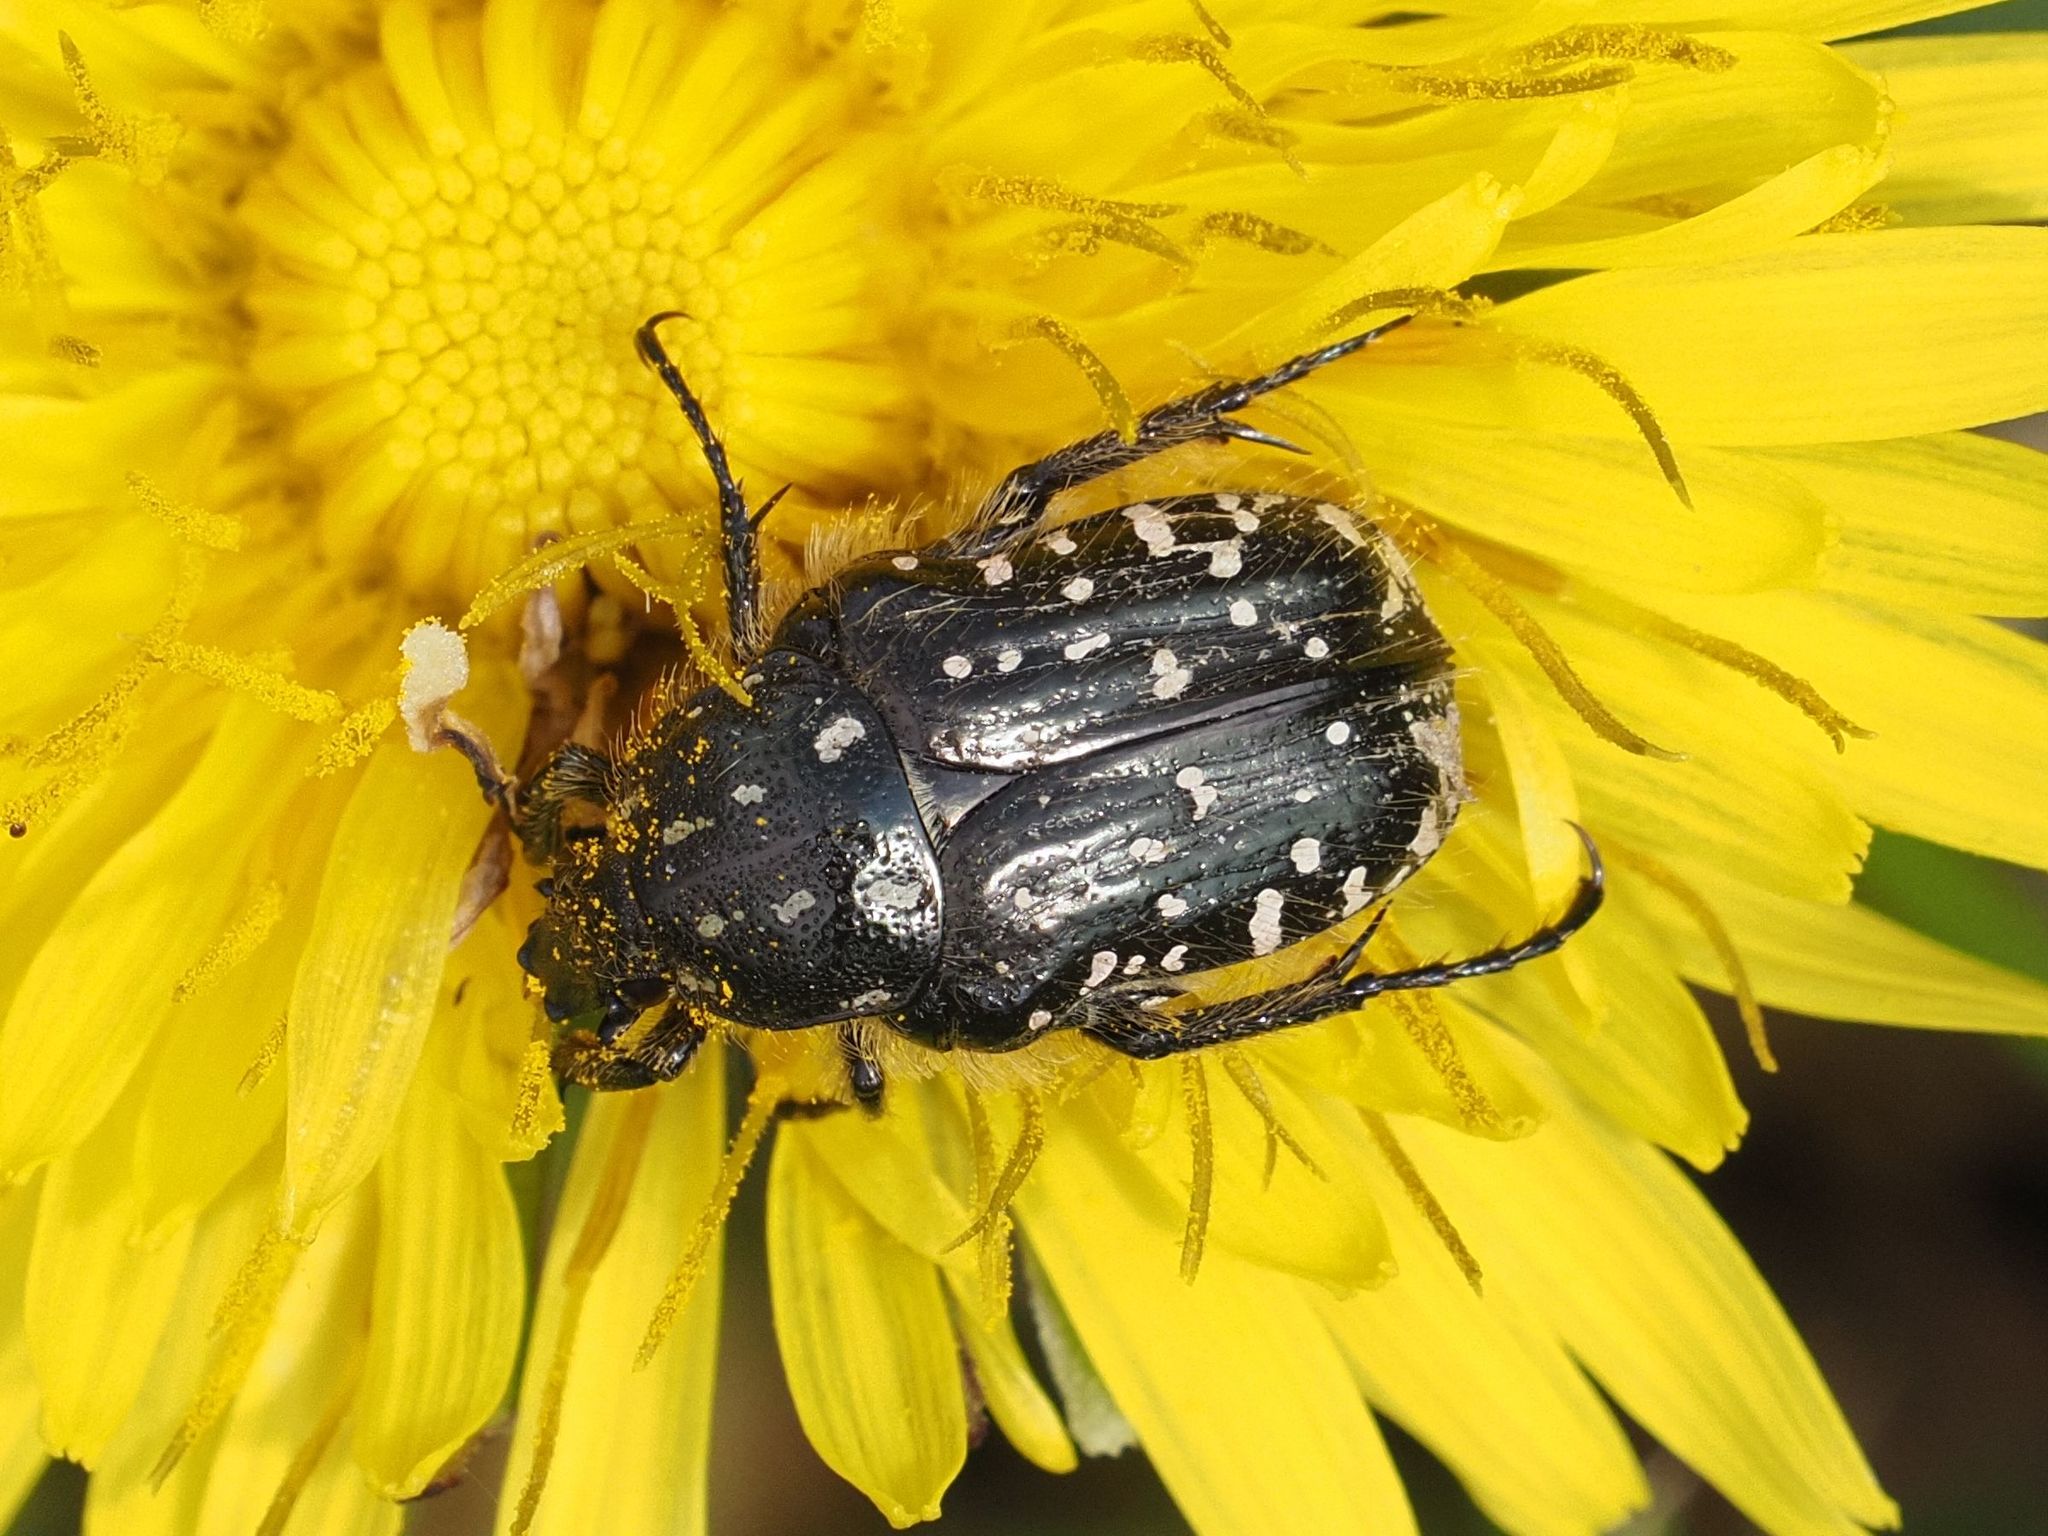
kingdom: Animalia
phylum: Arthropoda
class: Insecta
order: Coleoptera
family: Scarabaeidae
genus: Oxythyrea
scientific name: Oxythyrea funesta
